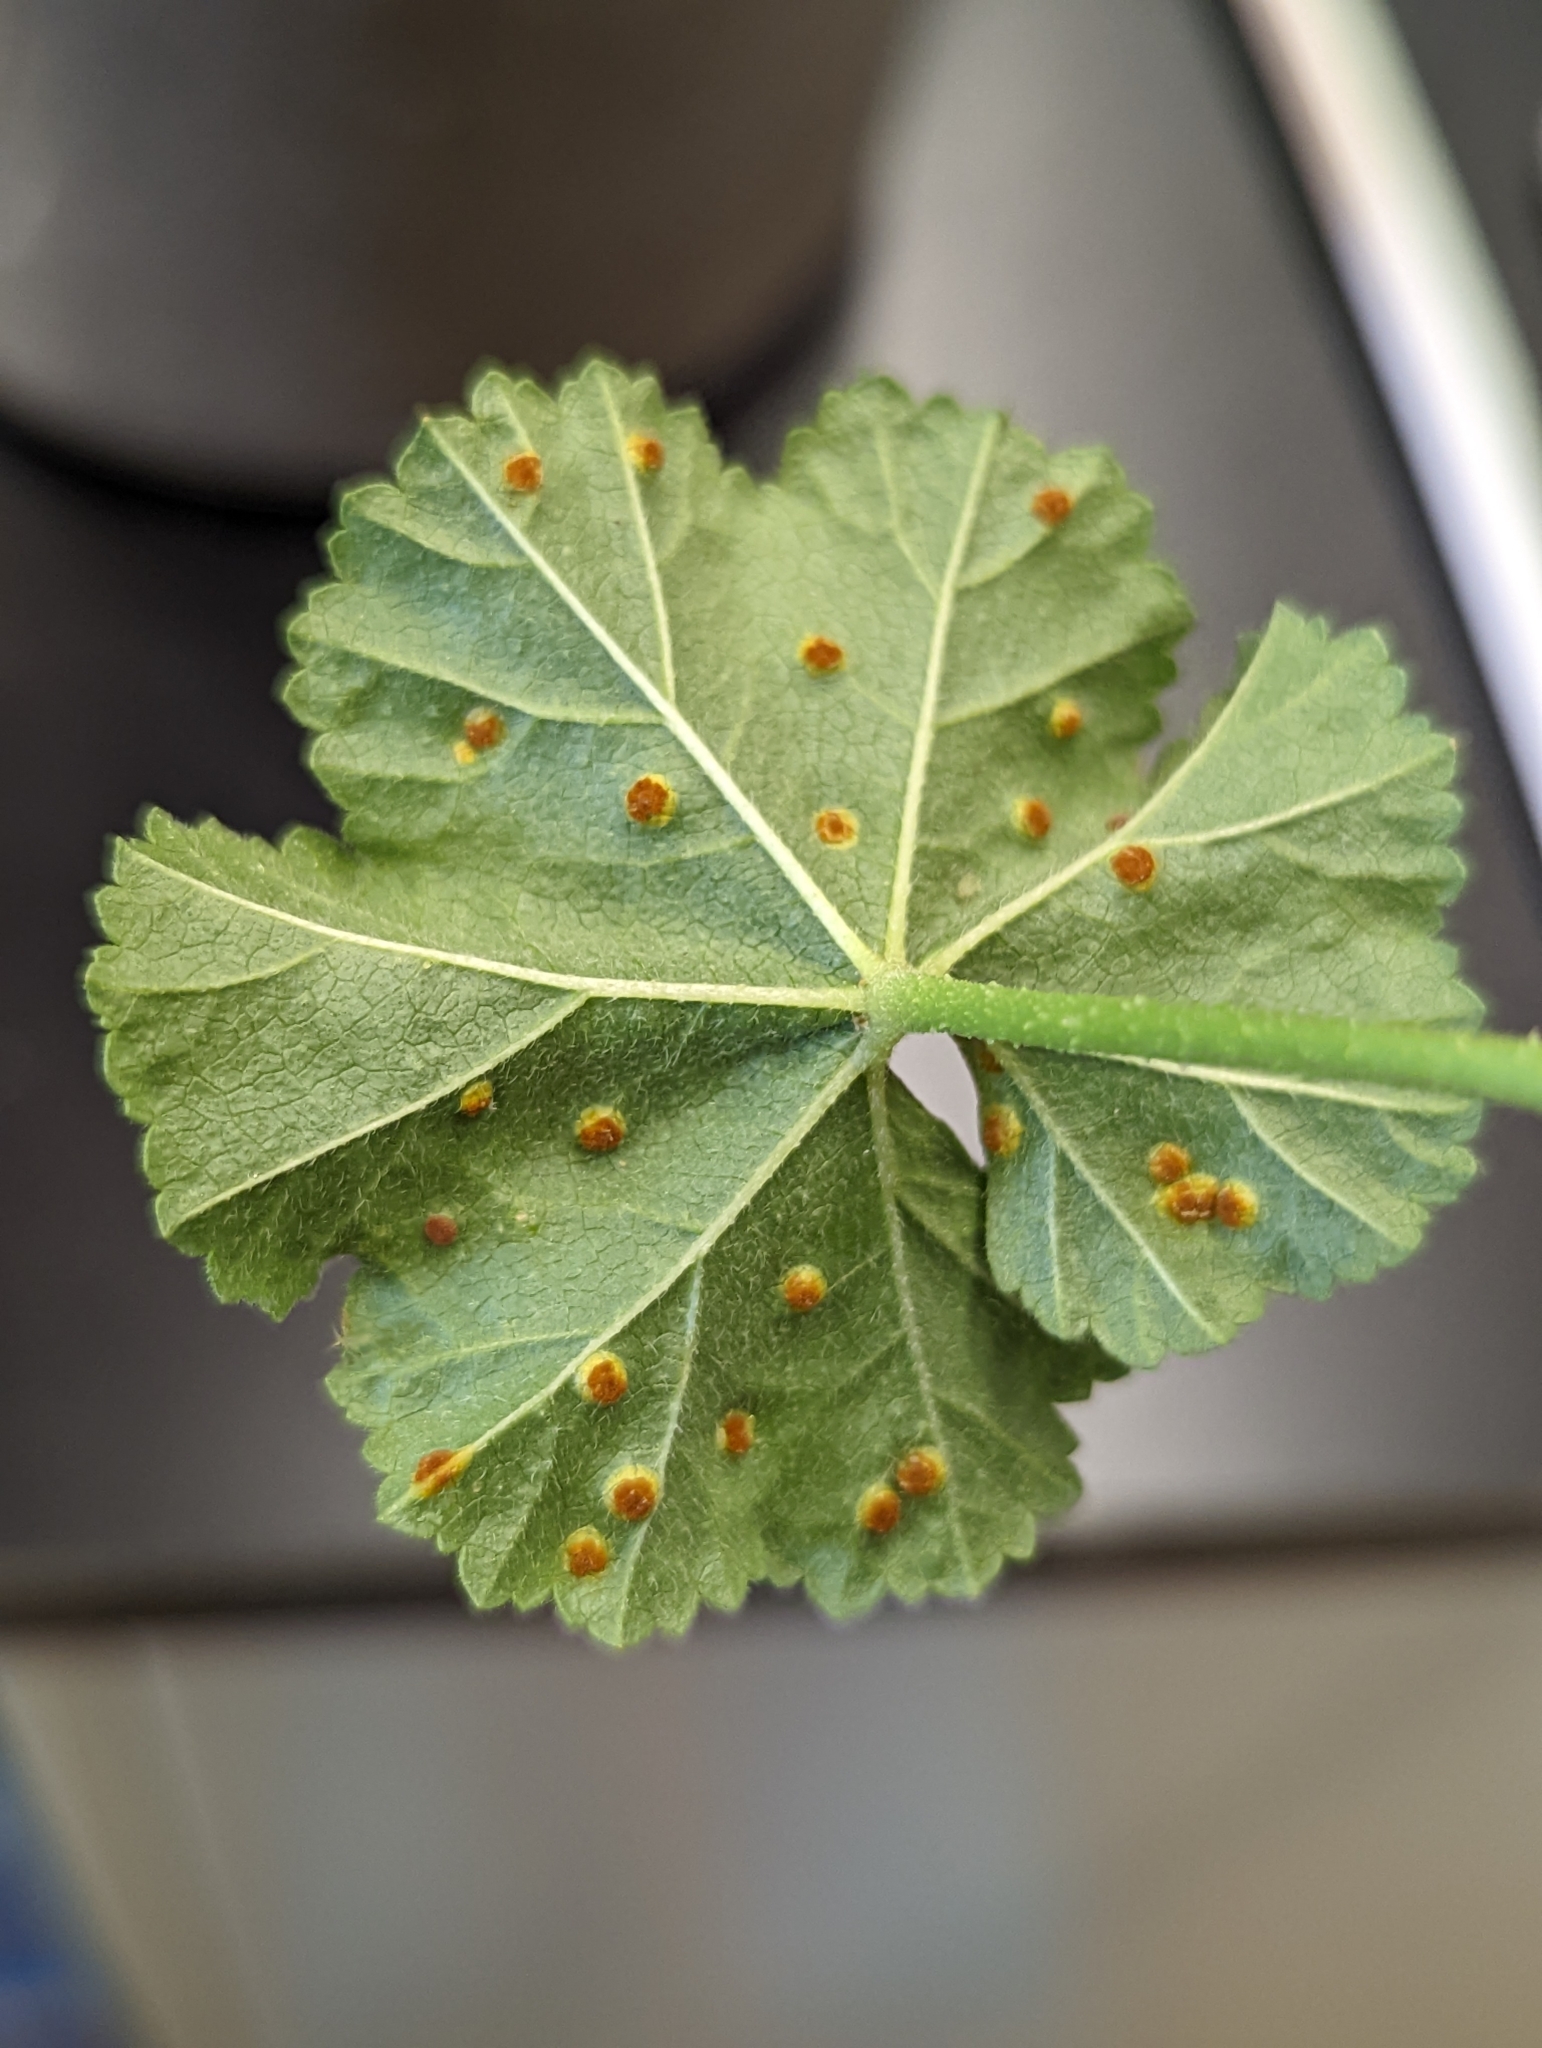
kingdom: Fungi
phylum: Basidiomycota
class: Pucciniomycetes
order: Pucciniales
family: Pucciniaceae
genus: Puccinia
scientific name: Puccinia malvacearum
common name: Hollyhock rust
